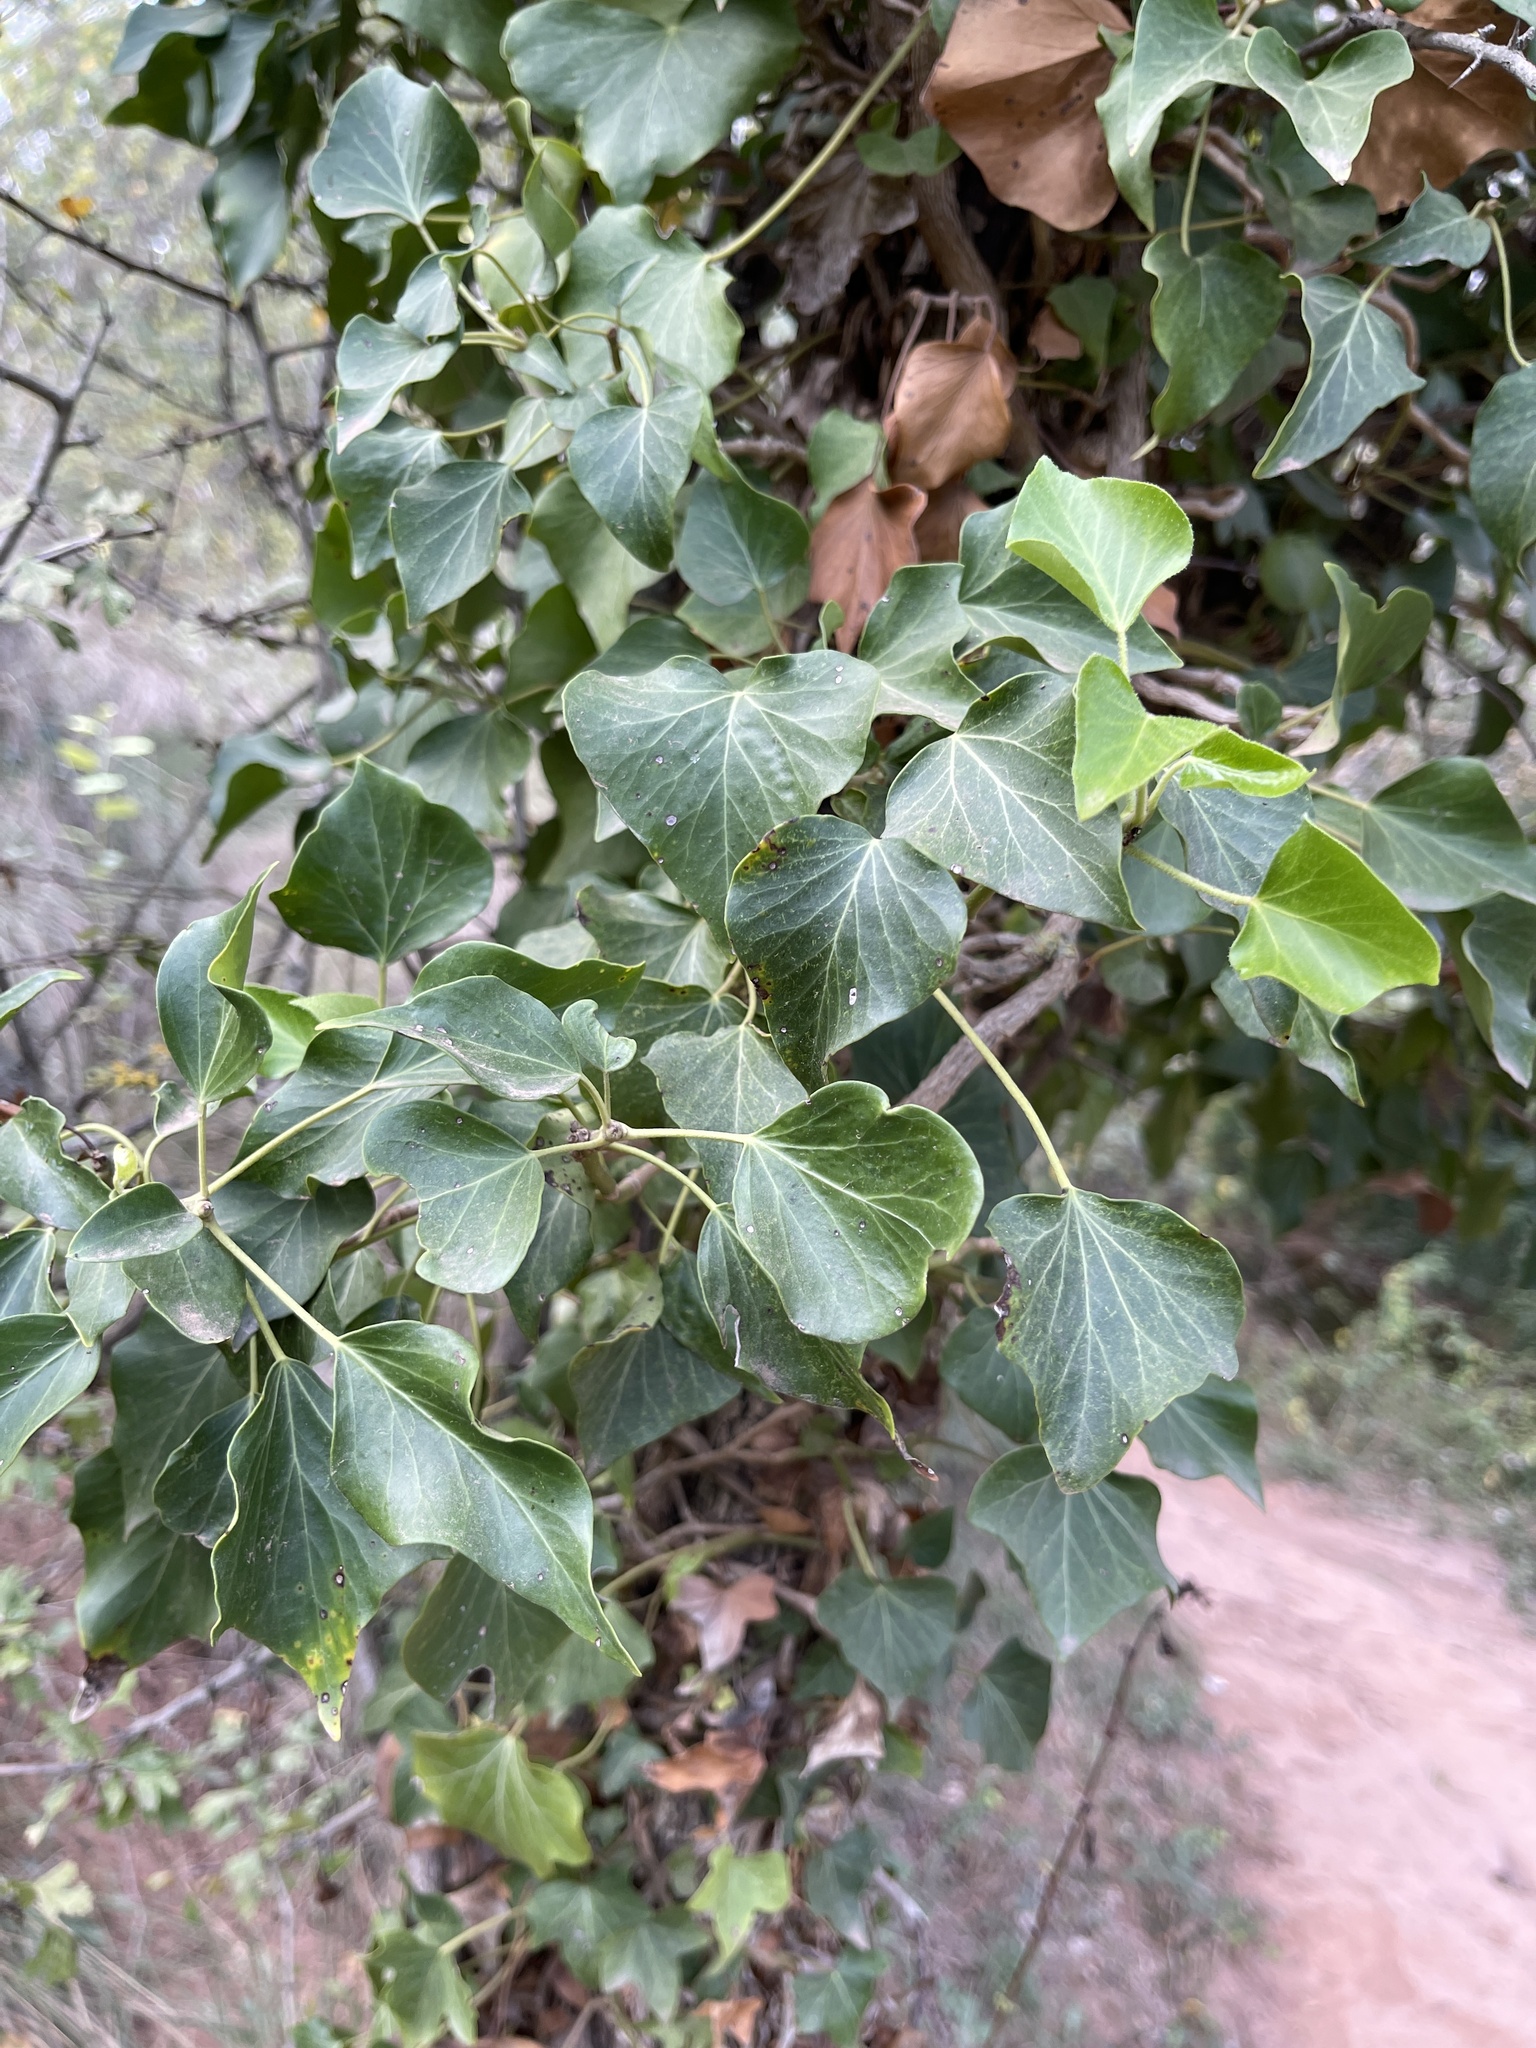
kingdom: Plantae
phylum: Tracheophyta
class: Magnoliopsida
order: Apiales
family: Araliaceae
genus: Hedera
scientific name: Hedera helix
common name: Ivy
